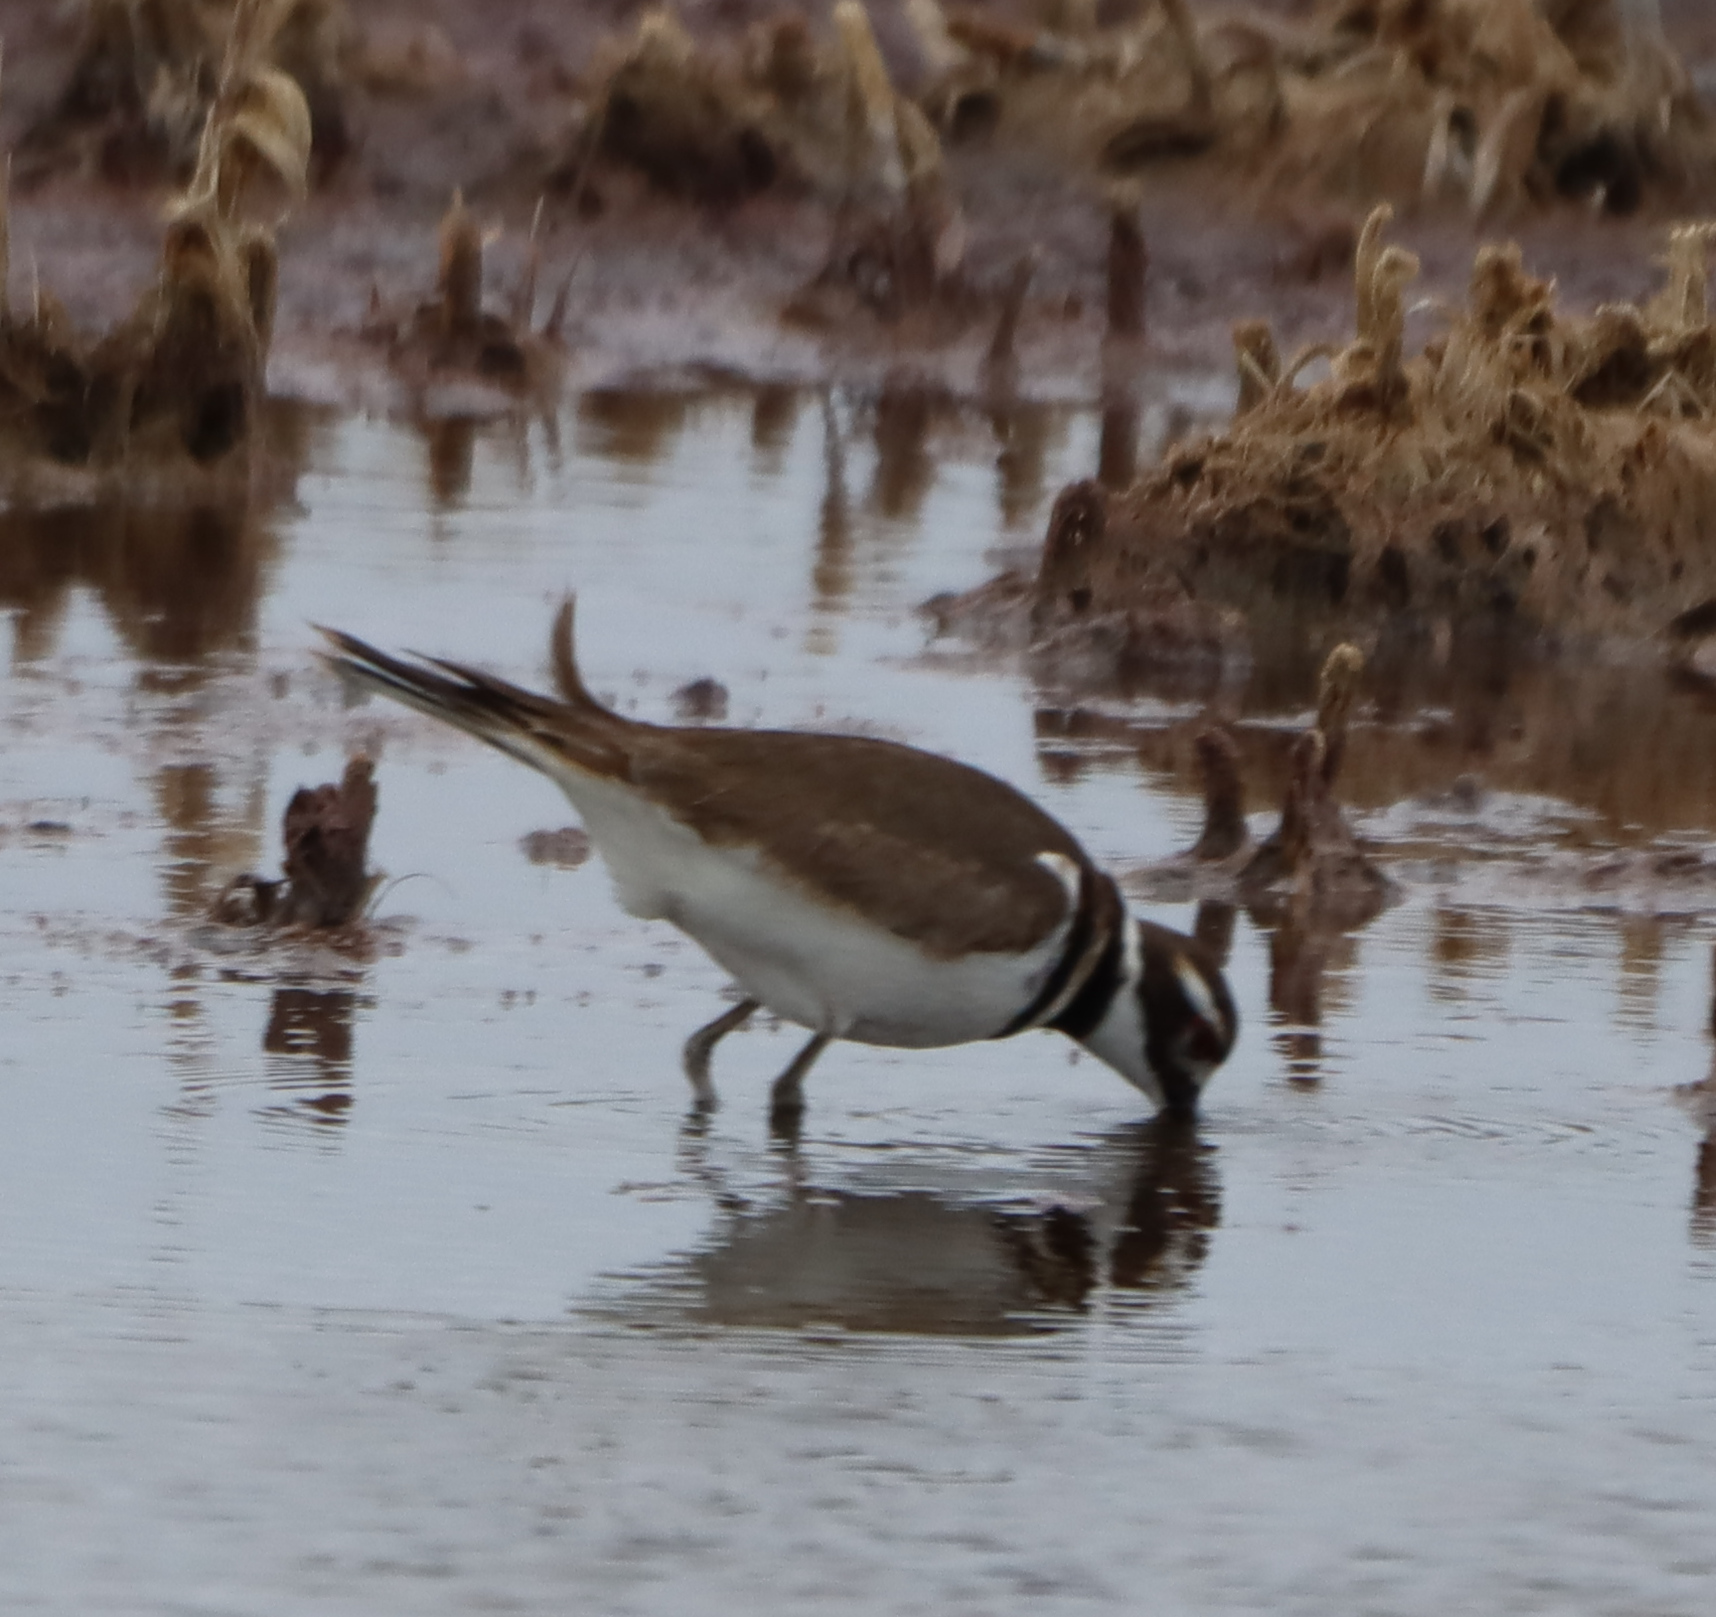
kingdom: Animalia
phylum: Chordata
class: Aves
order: Charadriiformes
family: Charadriidae
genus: Charadrius
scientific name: Charadrius vociferus
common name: Killdeer
